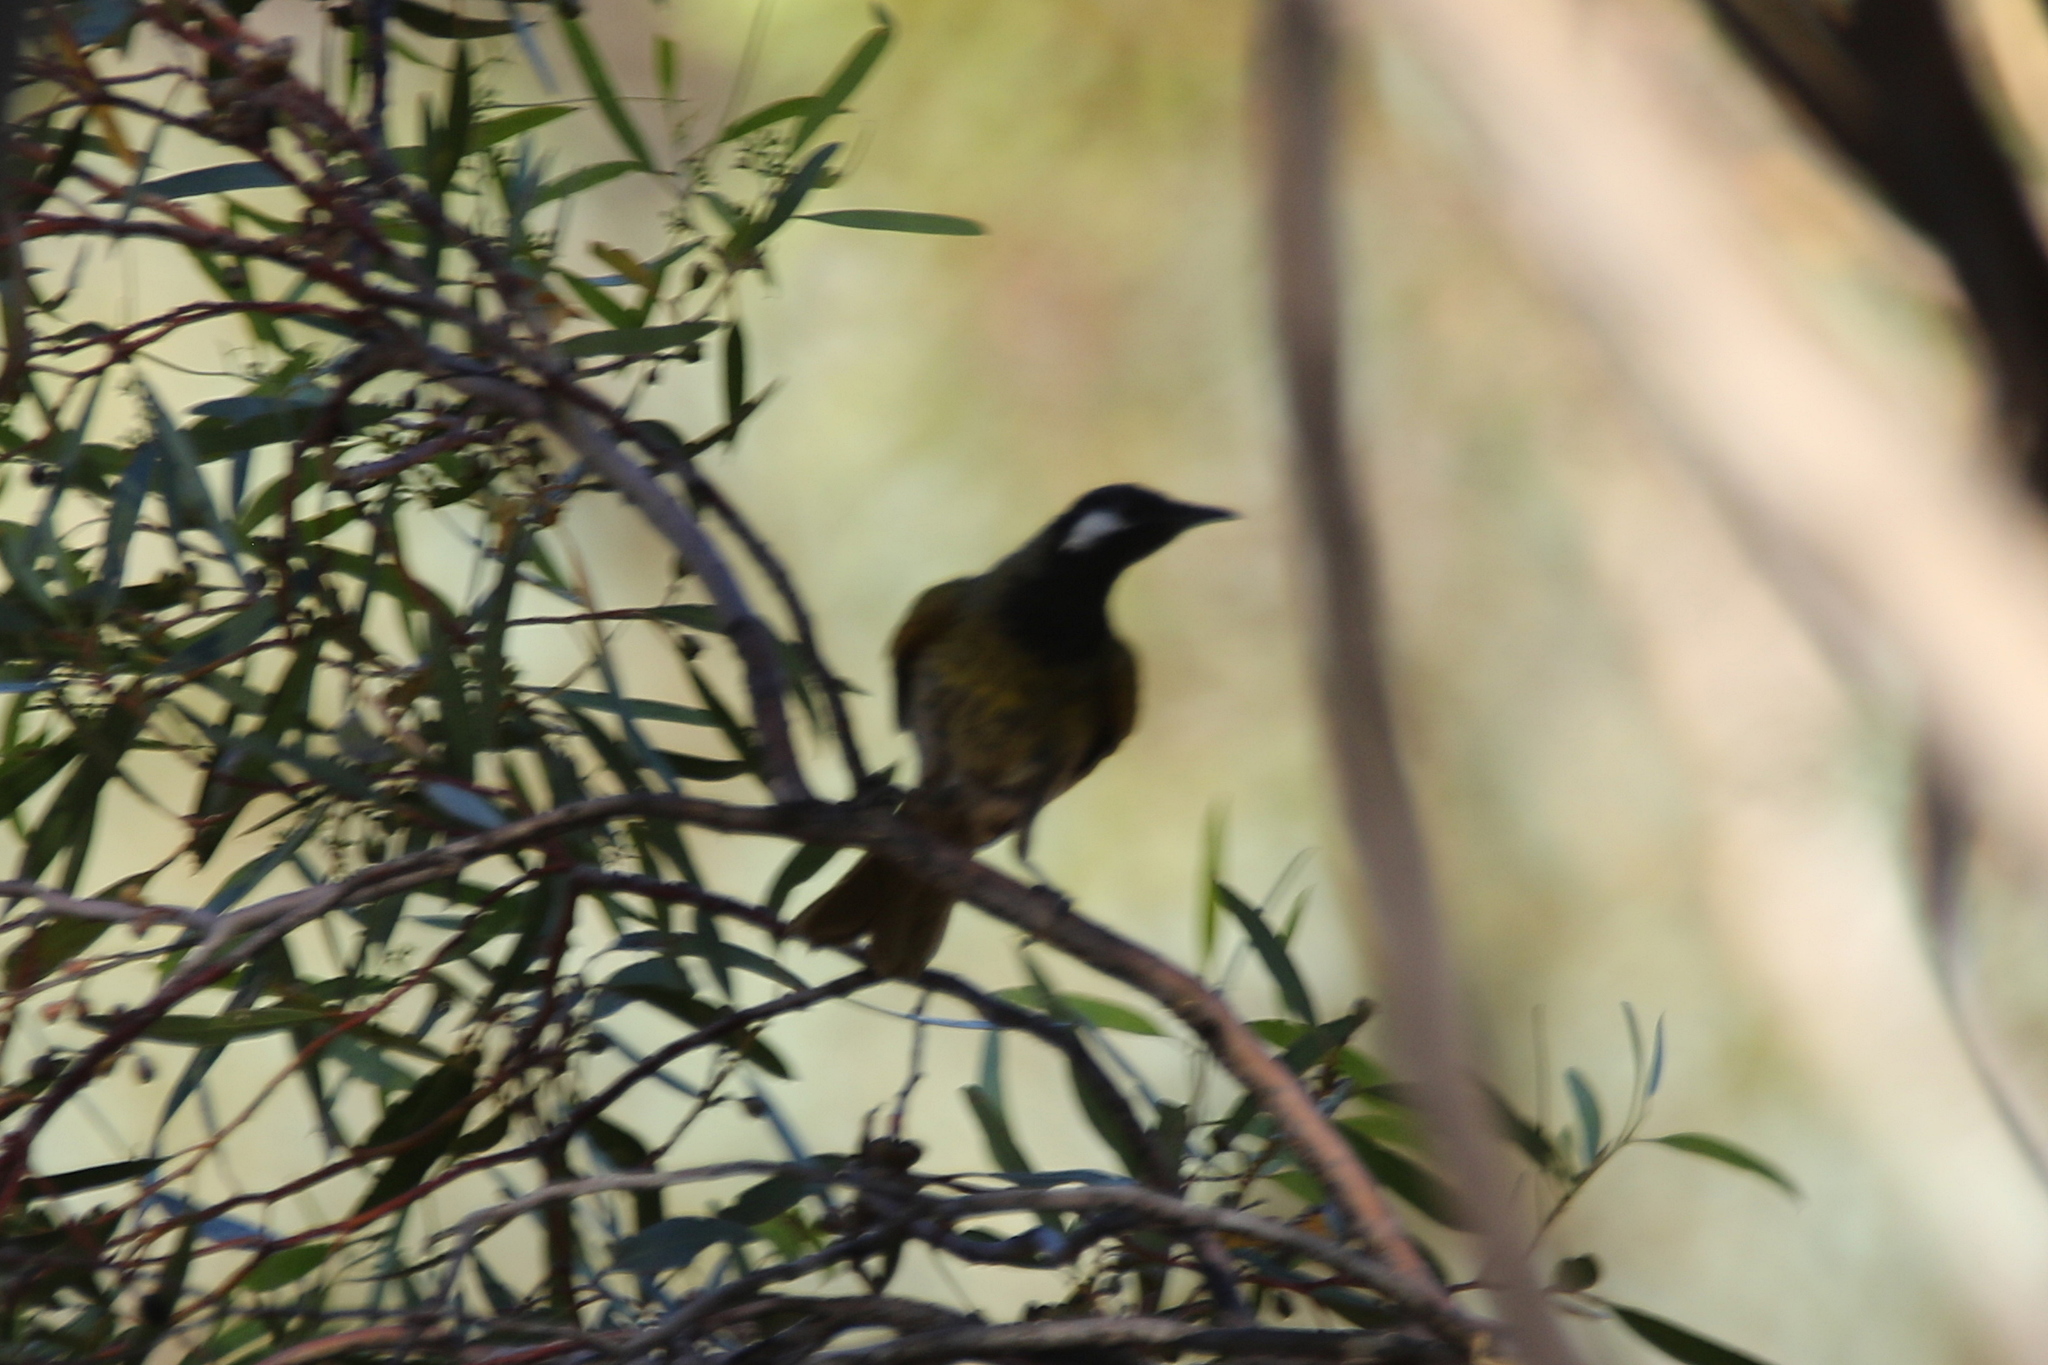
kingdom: Animalia
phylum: Chordata
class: Aves
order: Passeriformes
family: Meliphagidae
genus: Nesoptilotis
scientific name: Nesoptilotis leucotis
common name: White-eared honeyeater
